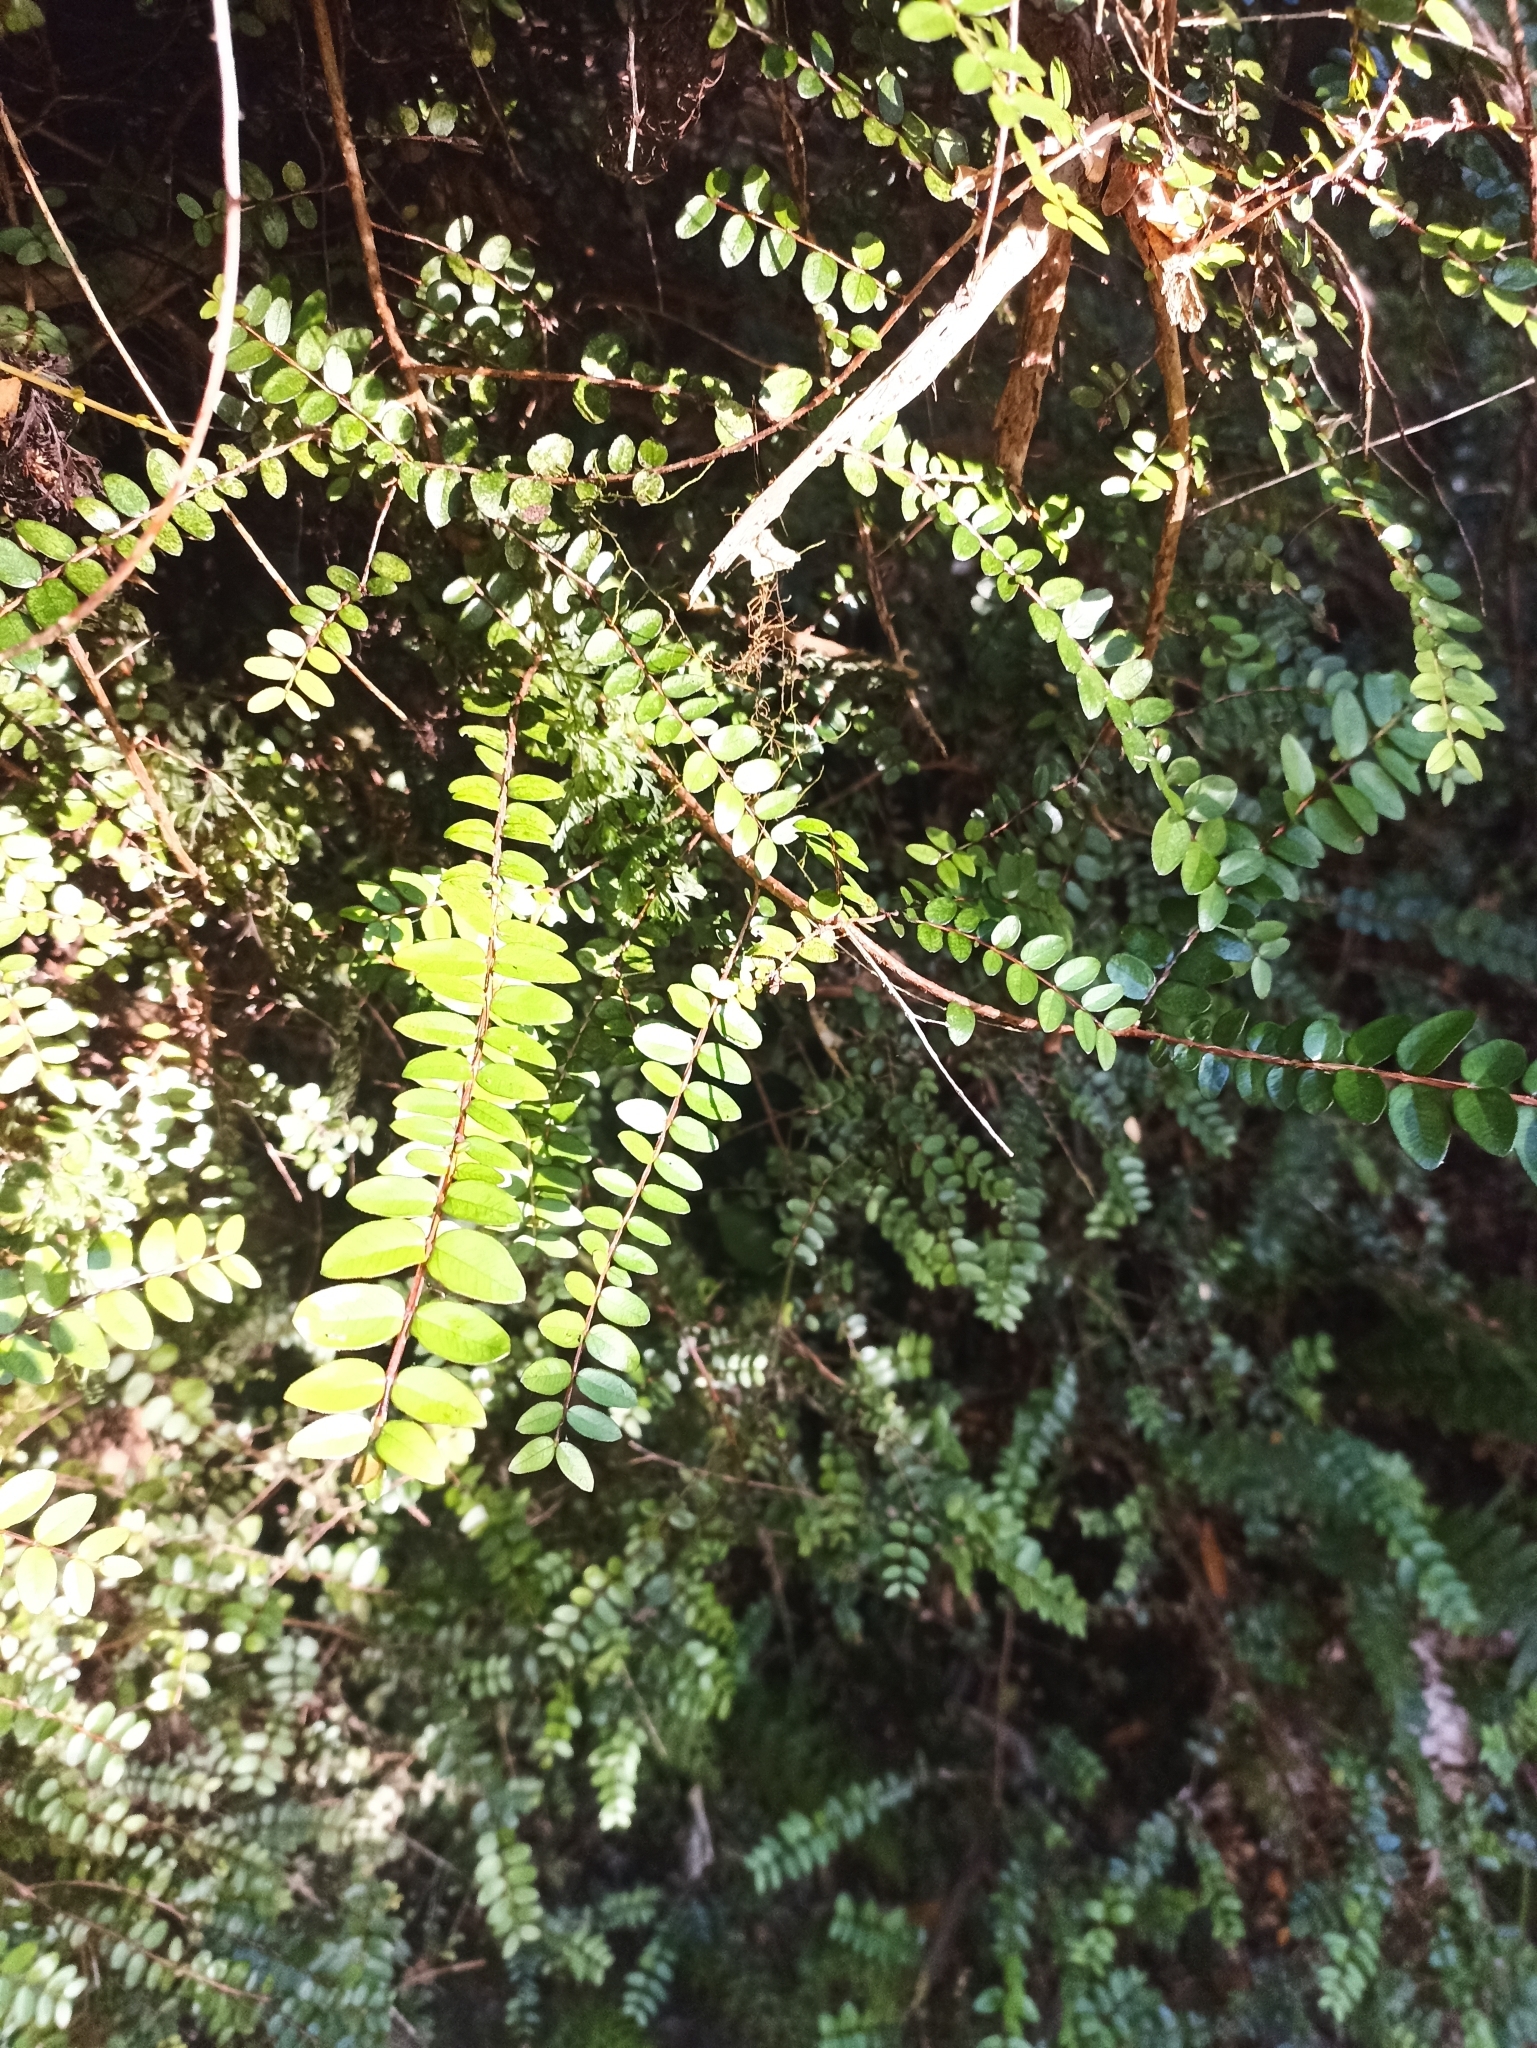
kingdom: Plantae
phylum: Tracheophyta
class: Magnoliopsida
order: Myrtales
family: Myrtaceae
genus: Metrosideros
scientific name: Metrosideros diffusa
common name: Small ratavine
